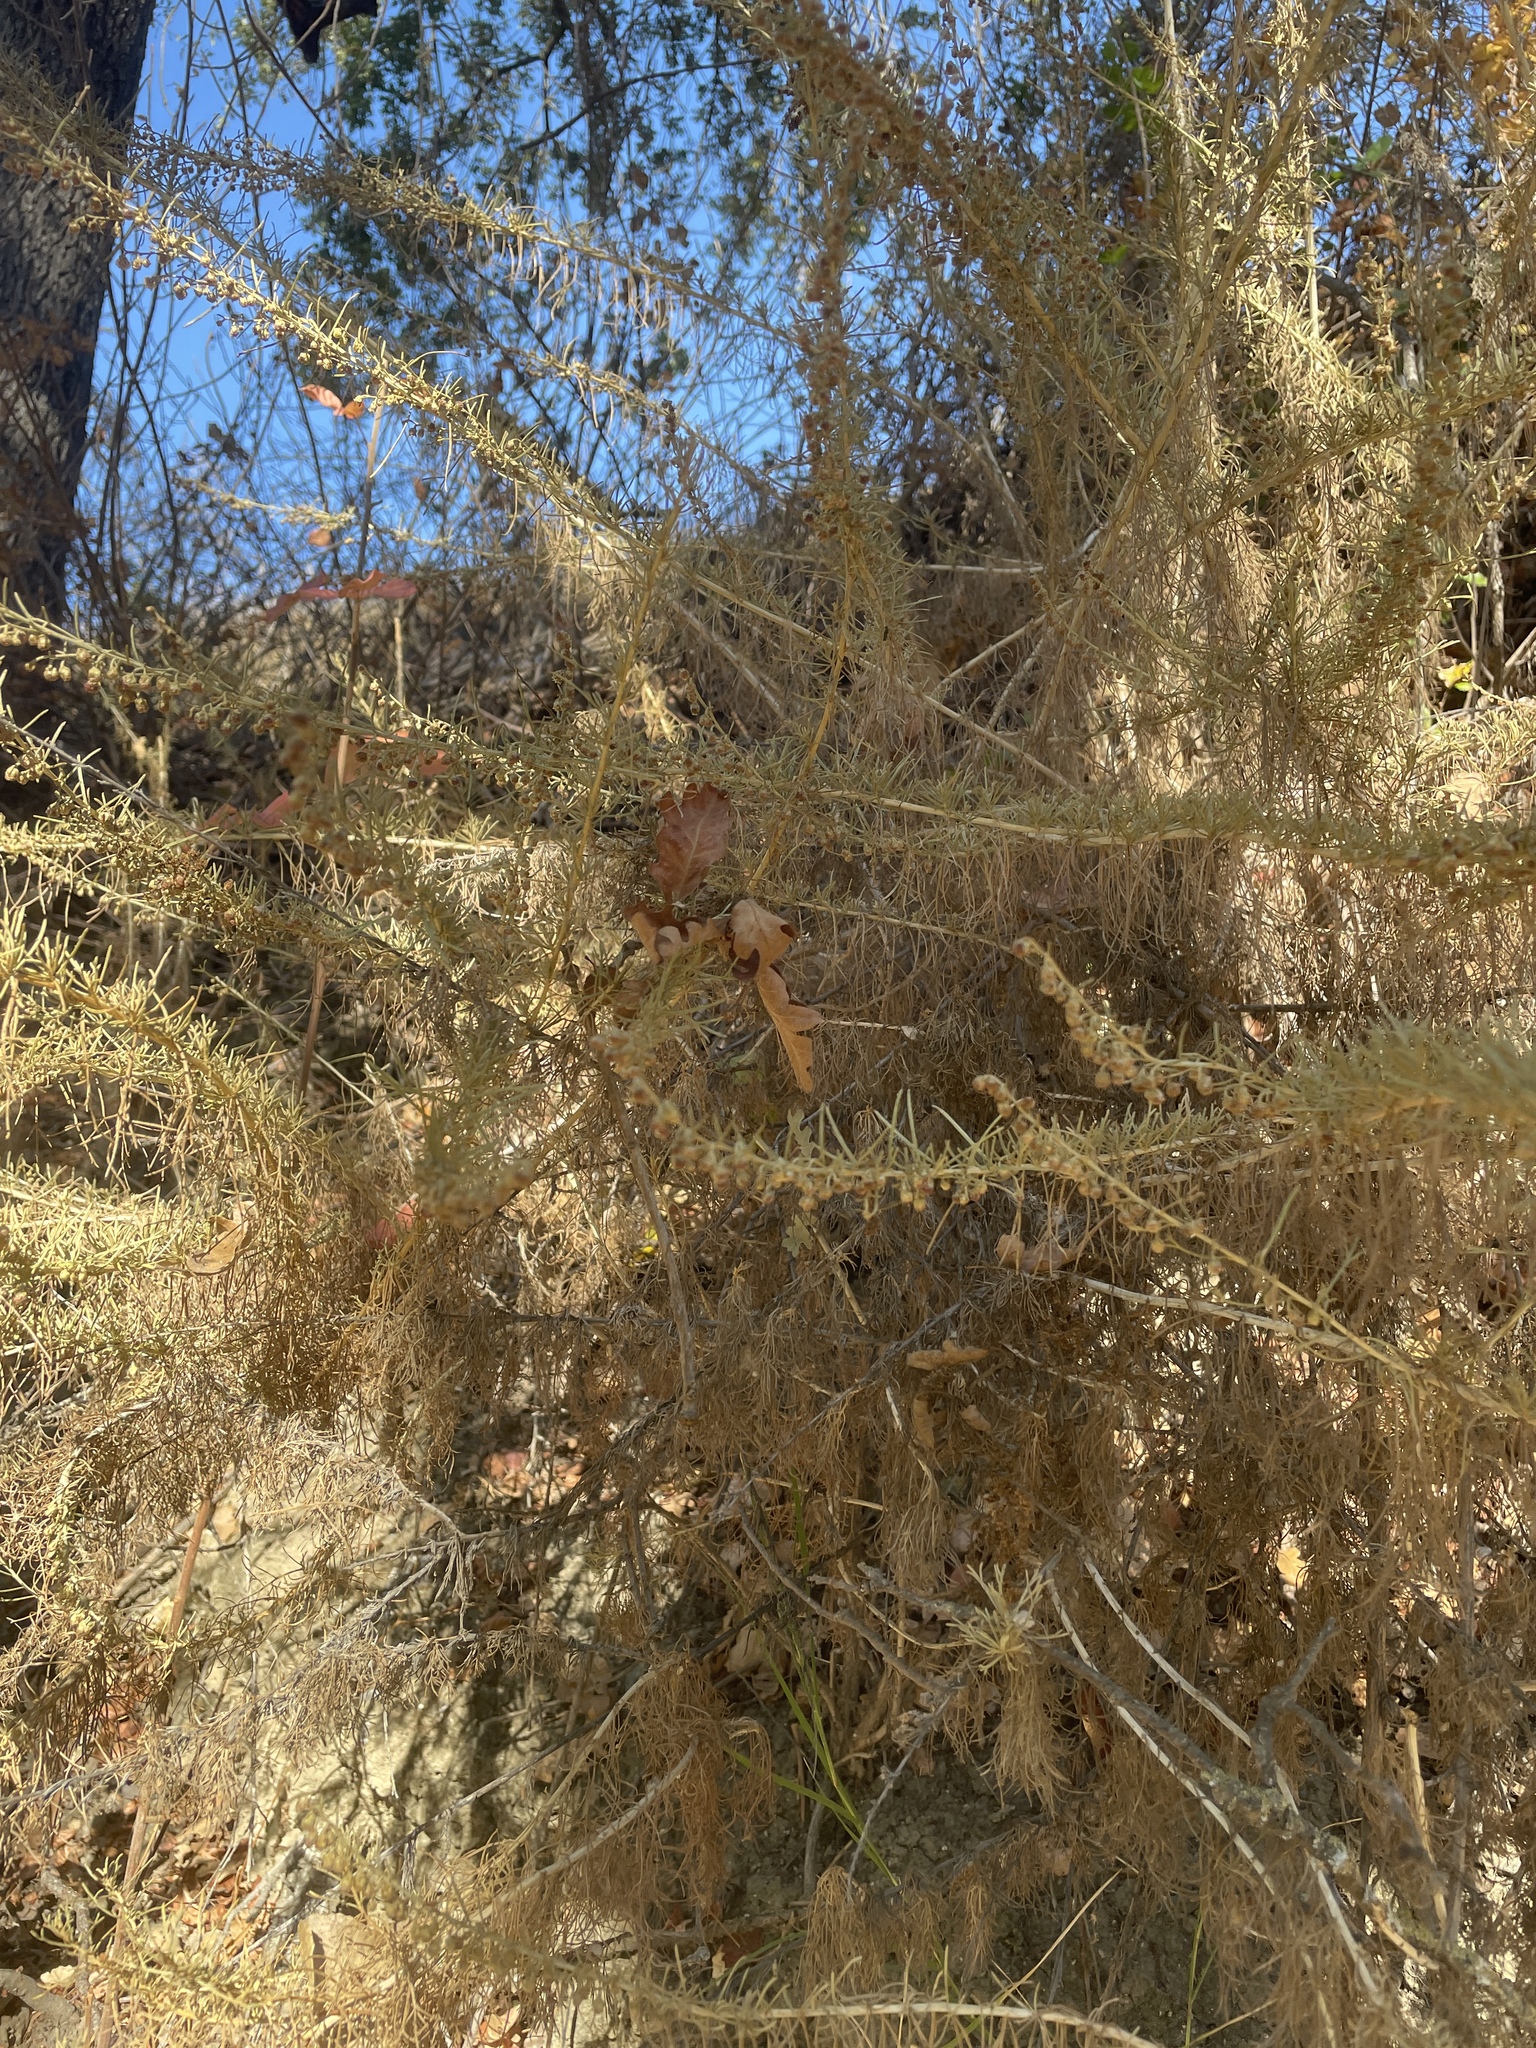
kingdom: Plantae
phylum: Tracheophyta
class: Magnoliopsida
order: Asterales
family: Asteraceae
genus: Artemisia
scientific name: Artemisia californica
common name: California sagebrush
